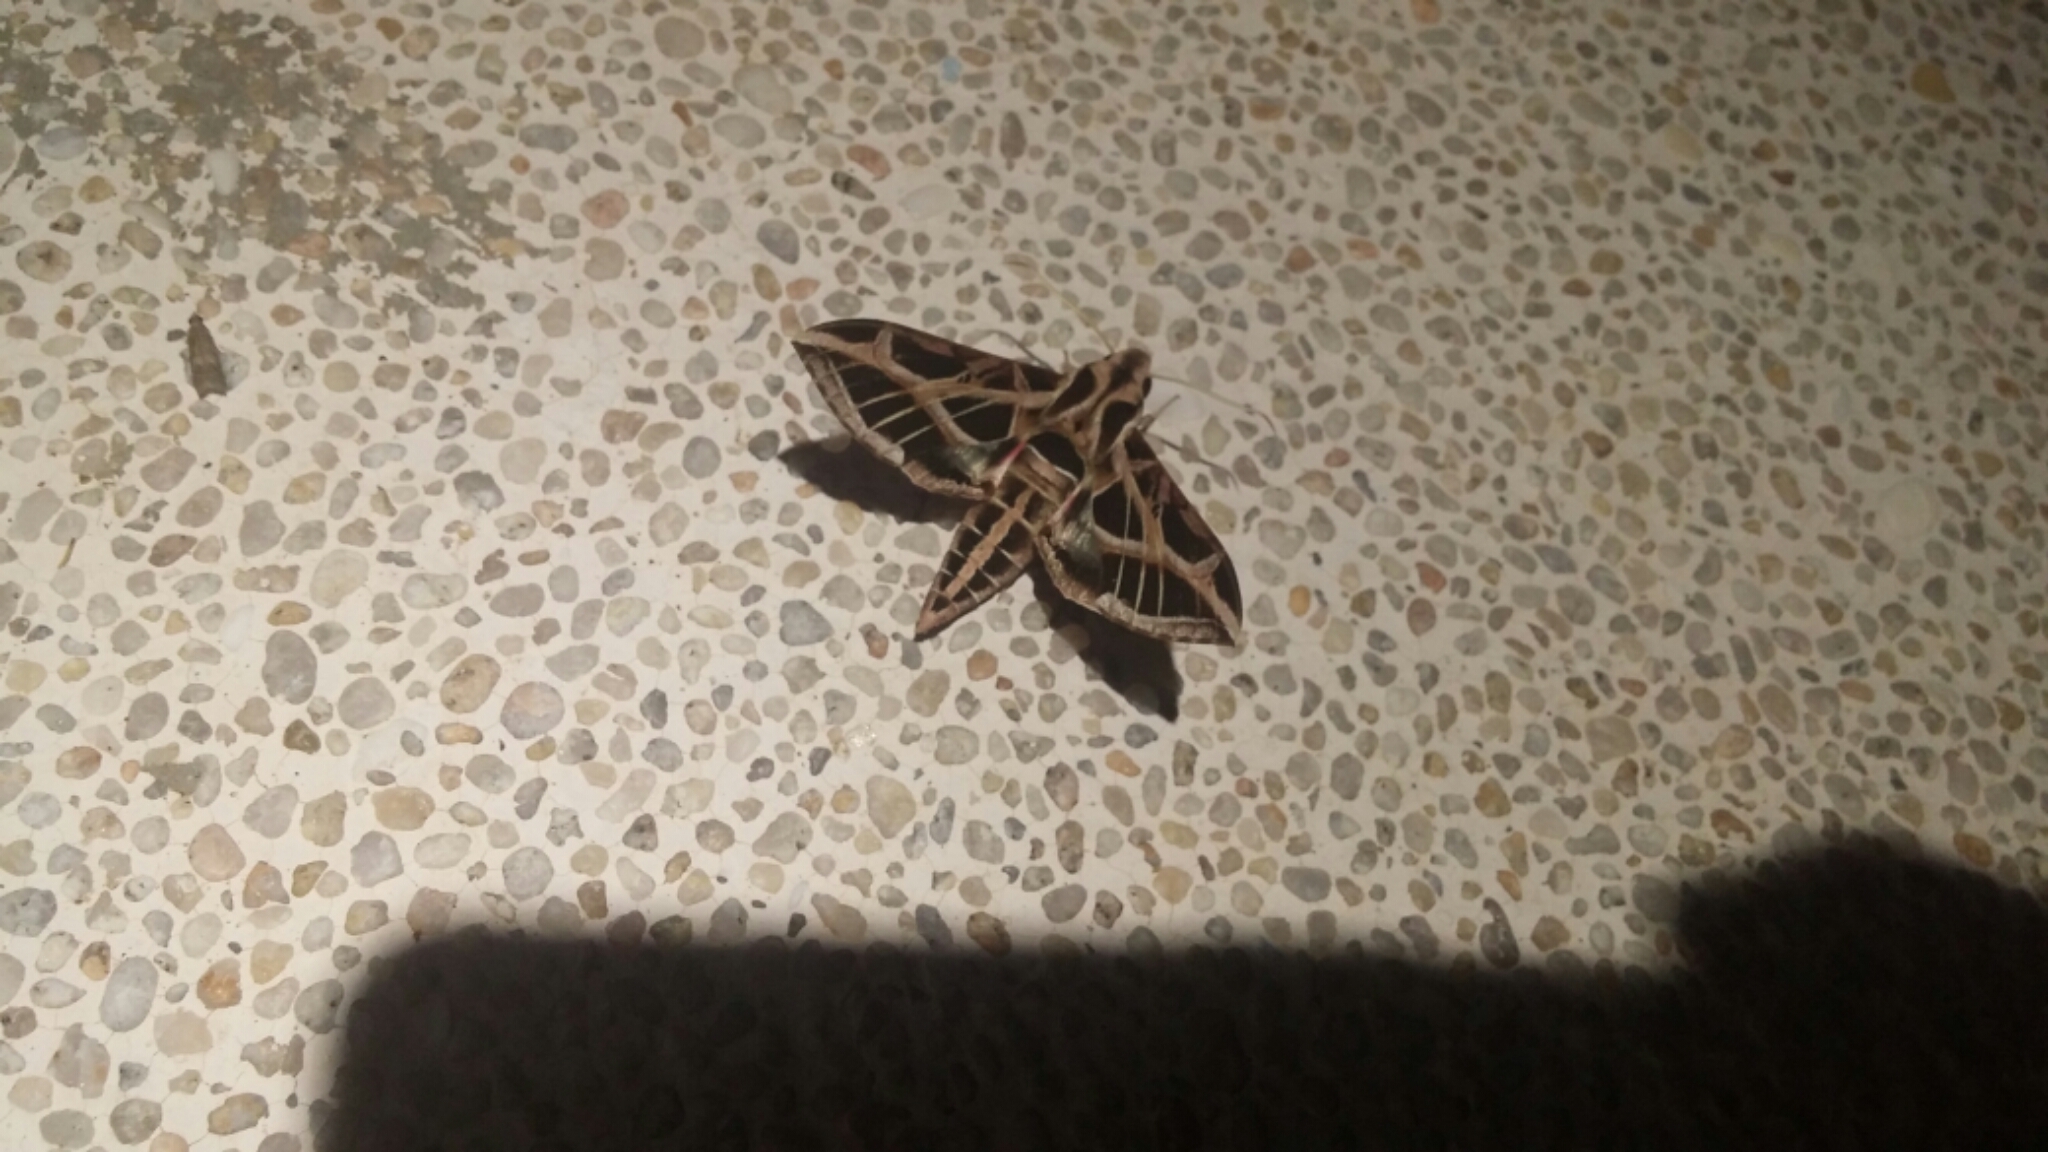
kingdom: Animalia
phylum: Arthropoda
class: Insecta
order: Lepidoptera
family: Sphingidae
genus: Eumorpha
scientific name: Eumorpha vitis
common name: Vine sphinx
